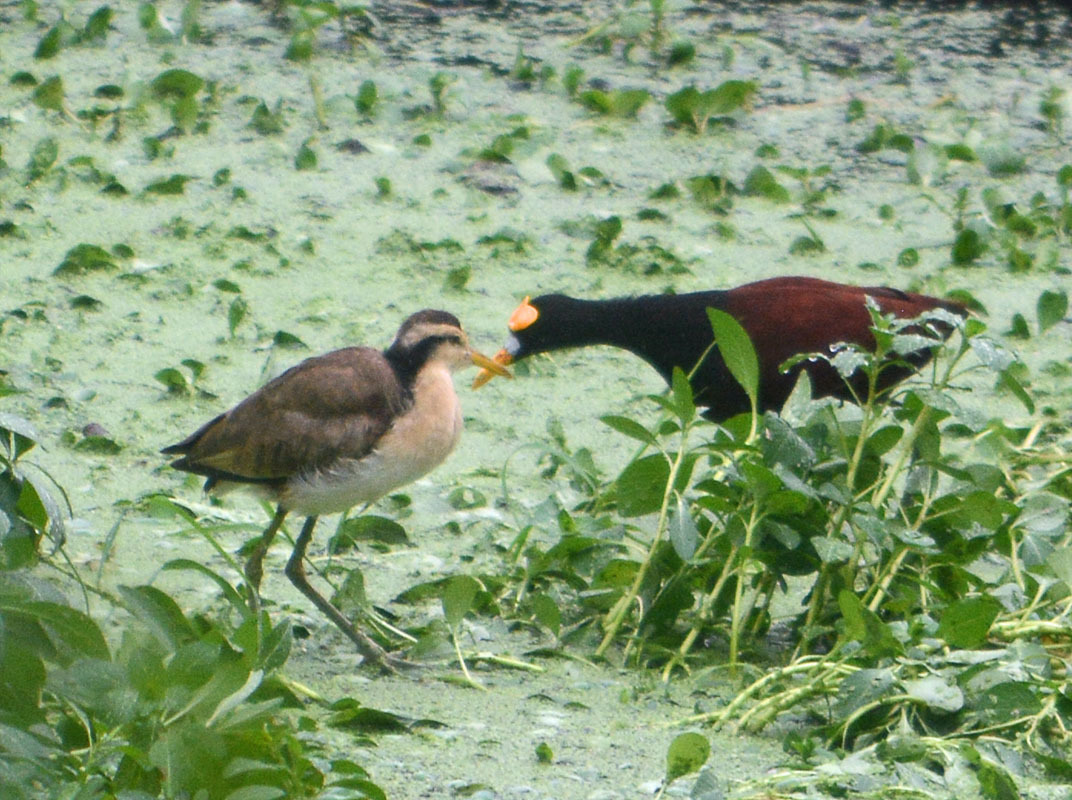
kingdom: Animalia
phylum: Chordata
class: Aves
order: Charadriiformes
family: Jacanidae
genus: Jacana
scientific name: Jacana spinosa
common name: Northern jacana
